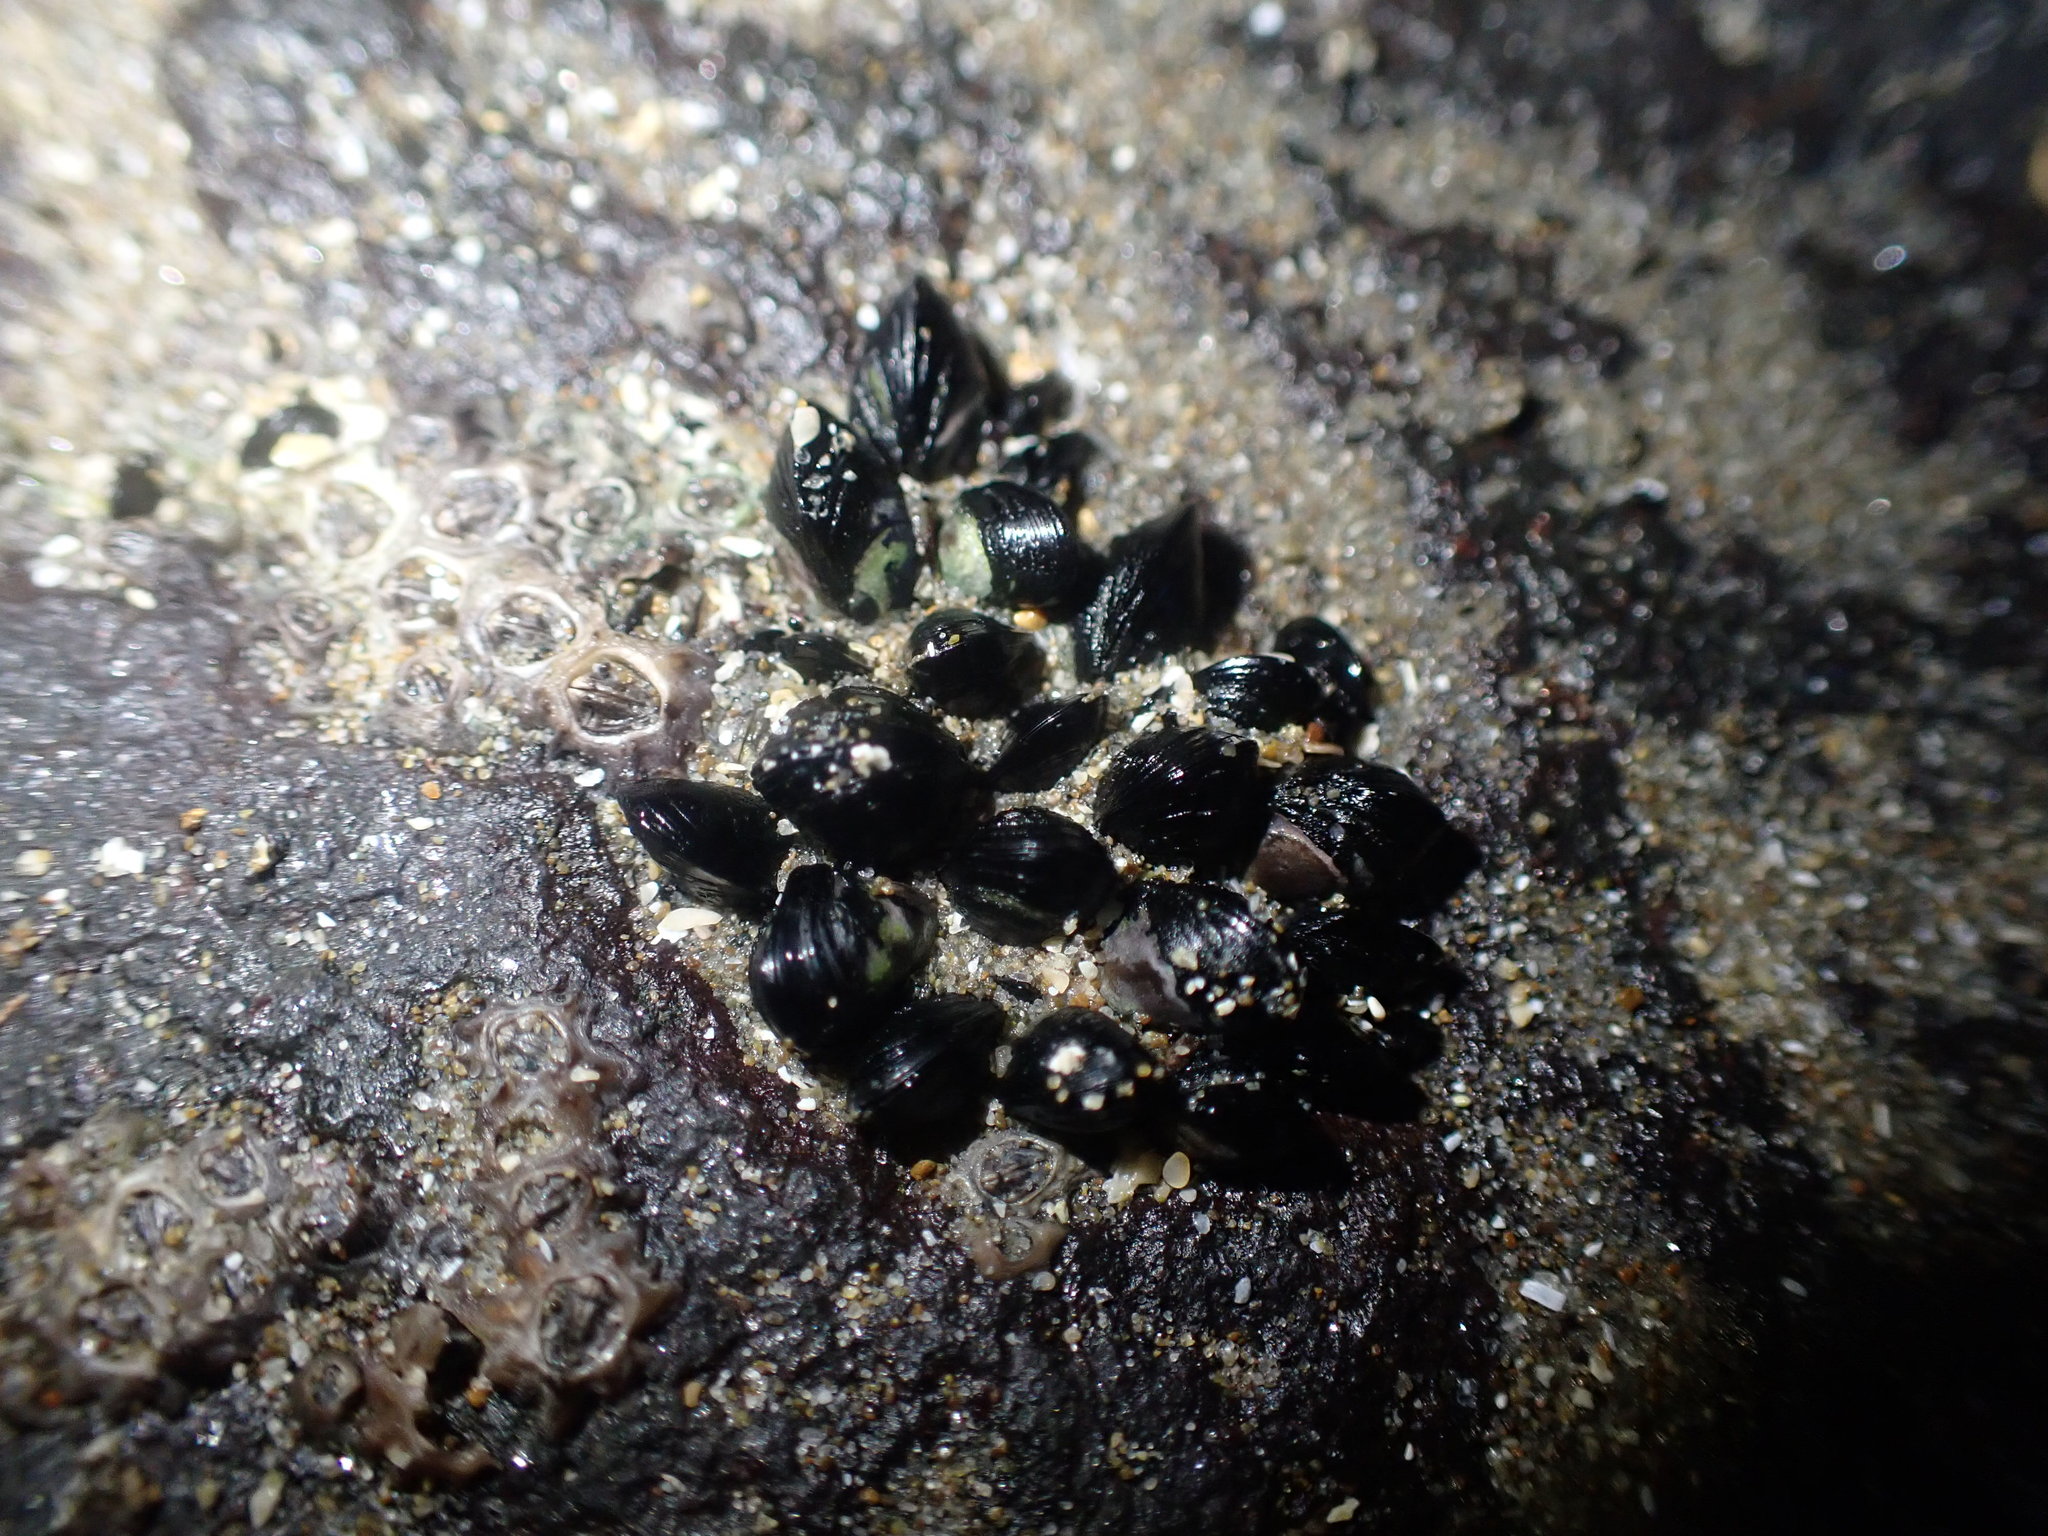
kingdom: Animalia
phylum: Mollusca
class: Bivalvia
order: Mytilida
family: Mytilidae
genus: Xenostrobus
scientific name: Xenostrobus neozelanicus
